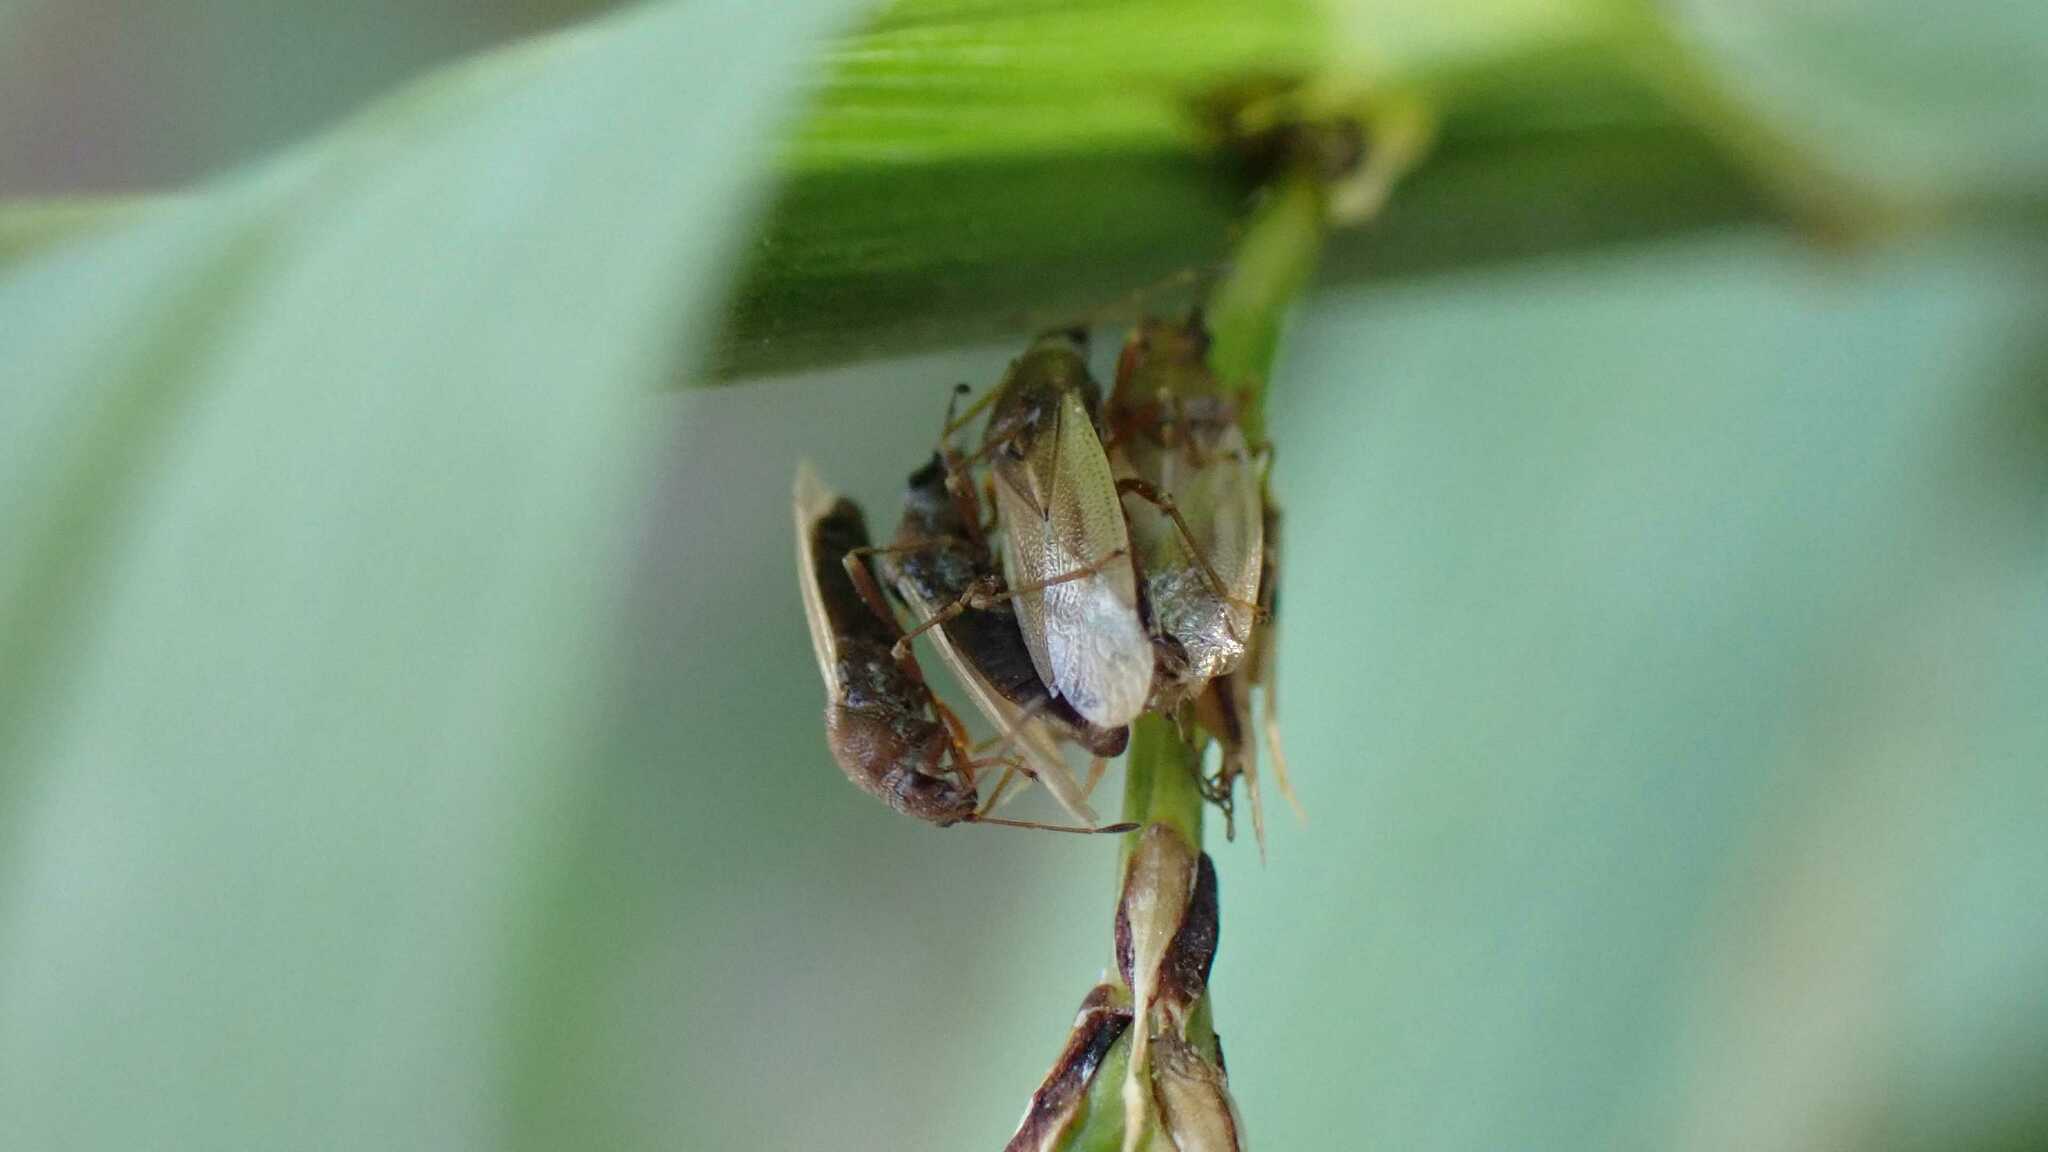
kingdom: Animalia
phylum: Arthropoda
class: Insecta
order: Hemiptera
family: Cymidae
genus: Cymus
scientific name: Cymus glandicolor
